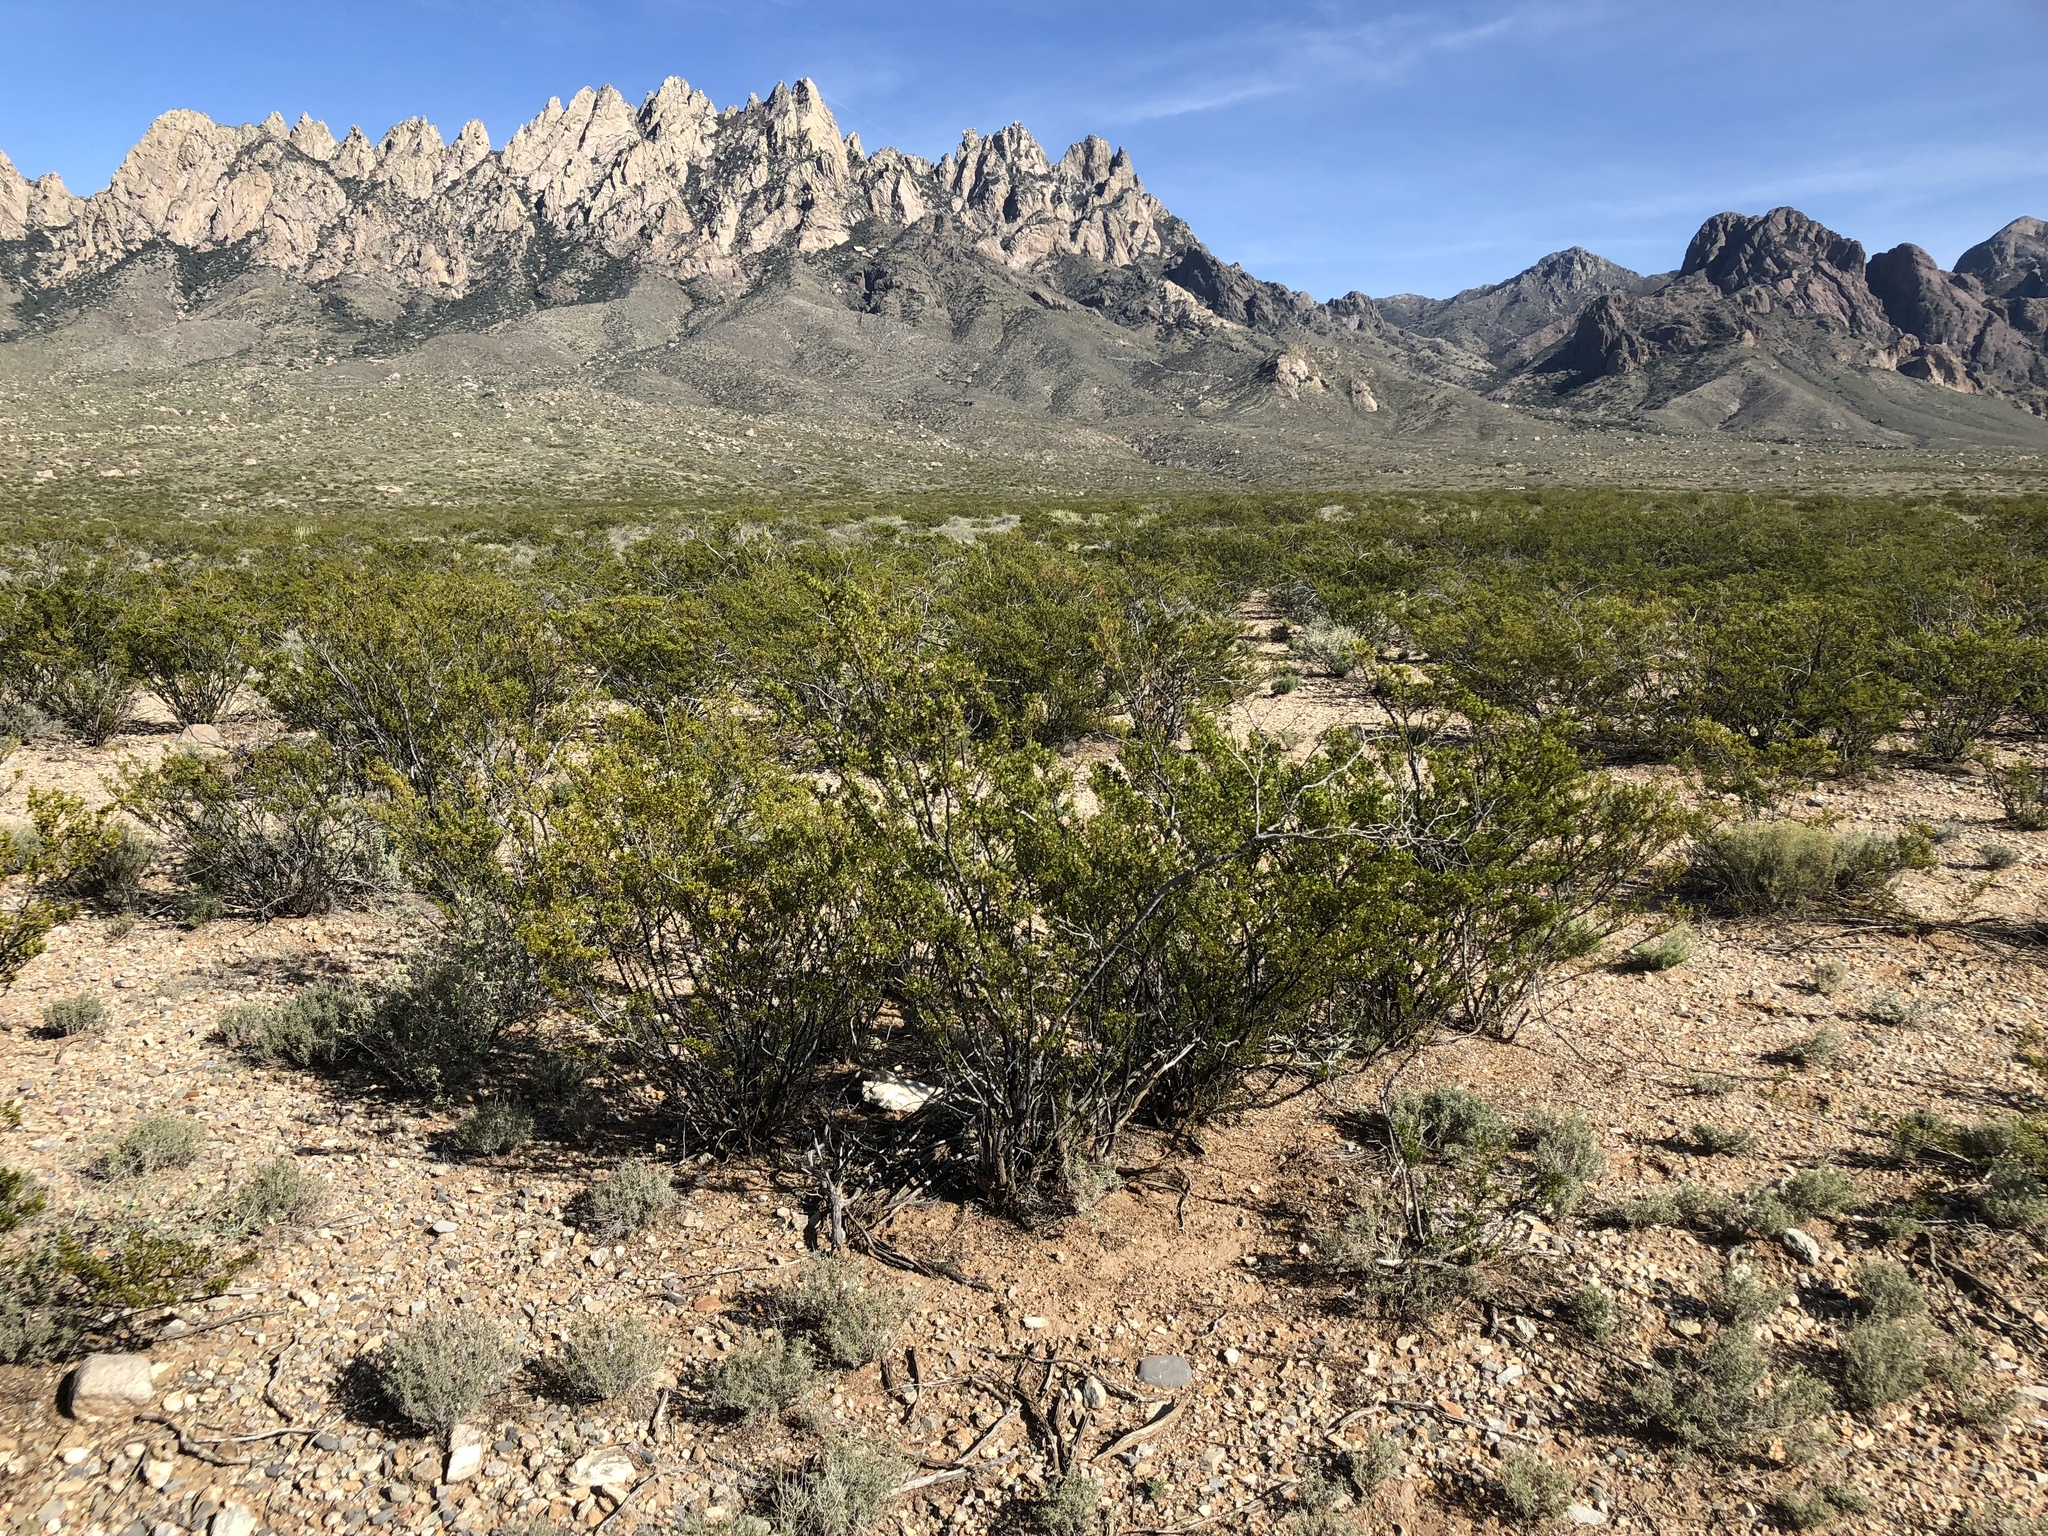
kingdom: Plantae
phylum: Tracheophyta
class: Magnoliopsida
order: Zygophyllales
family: Zygophyllaceae
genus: Larrea
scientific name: Larrea tridentata
